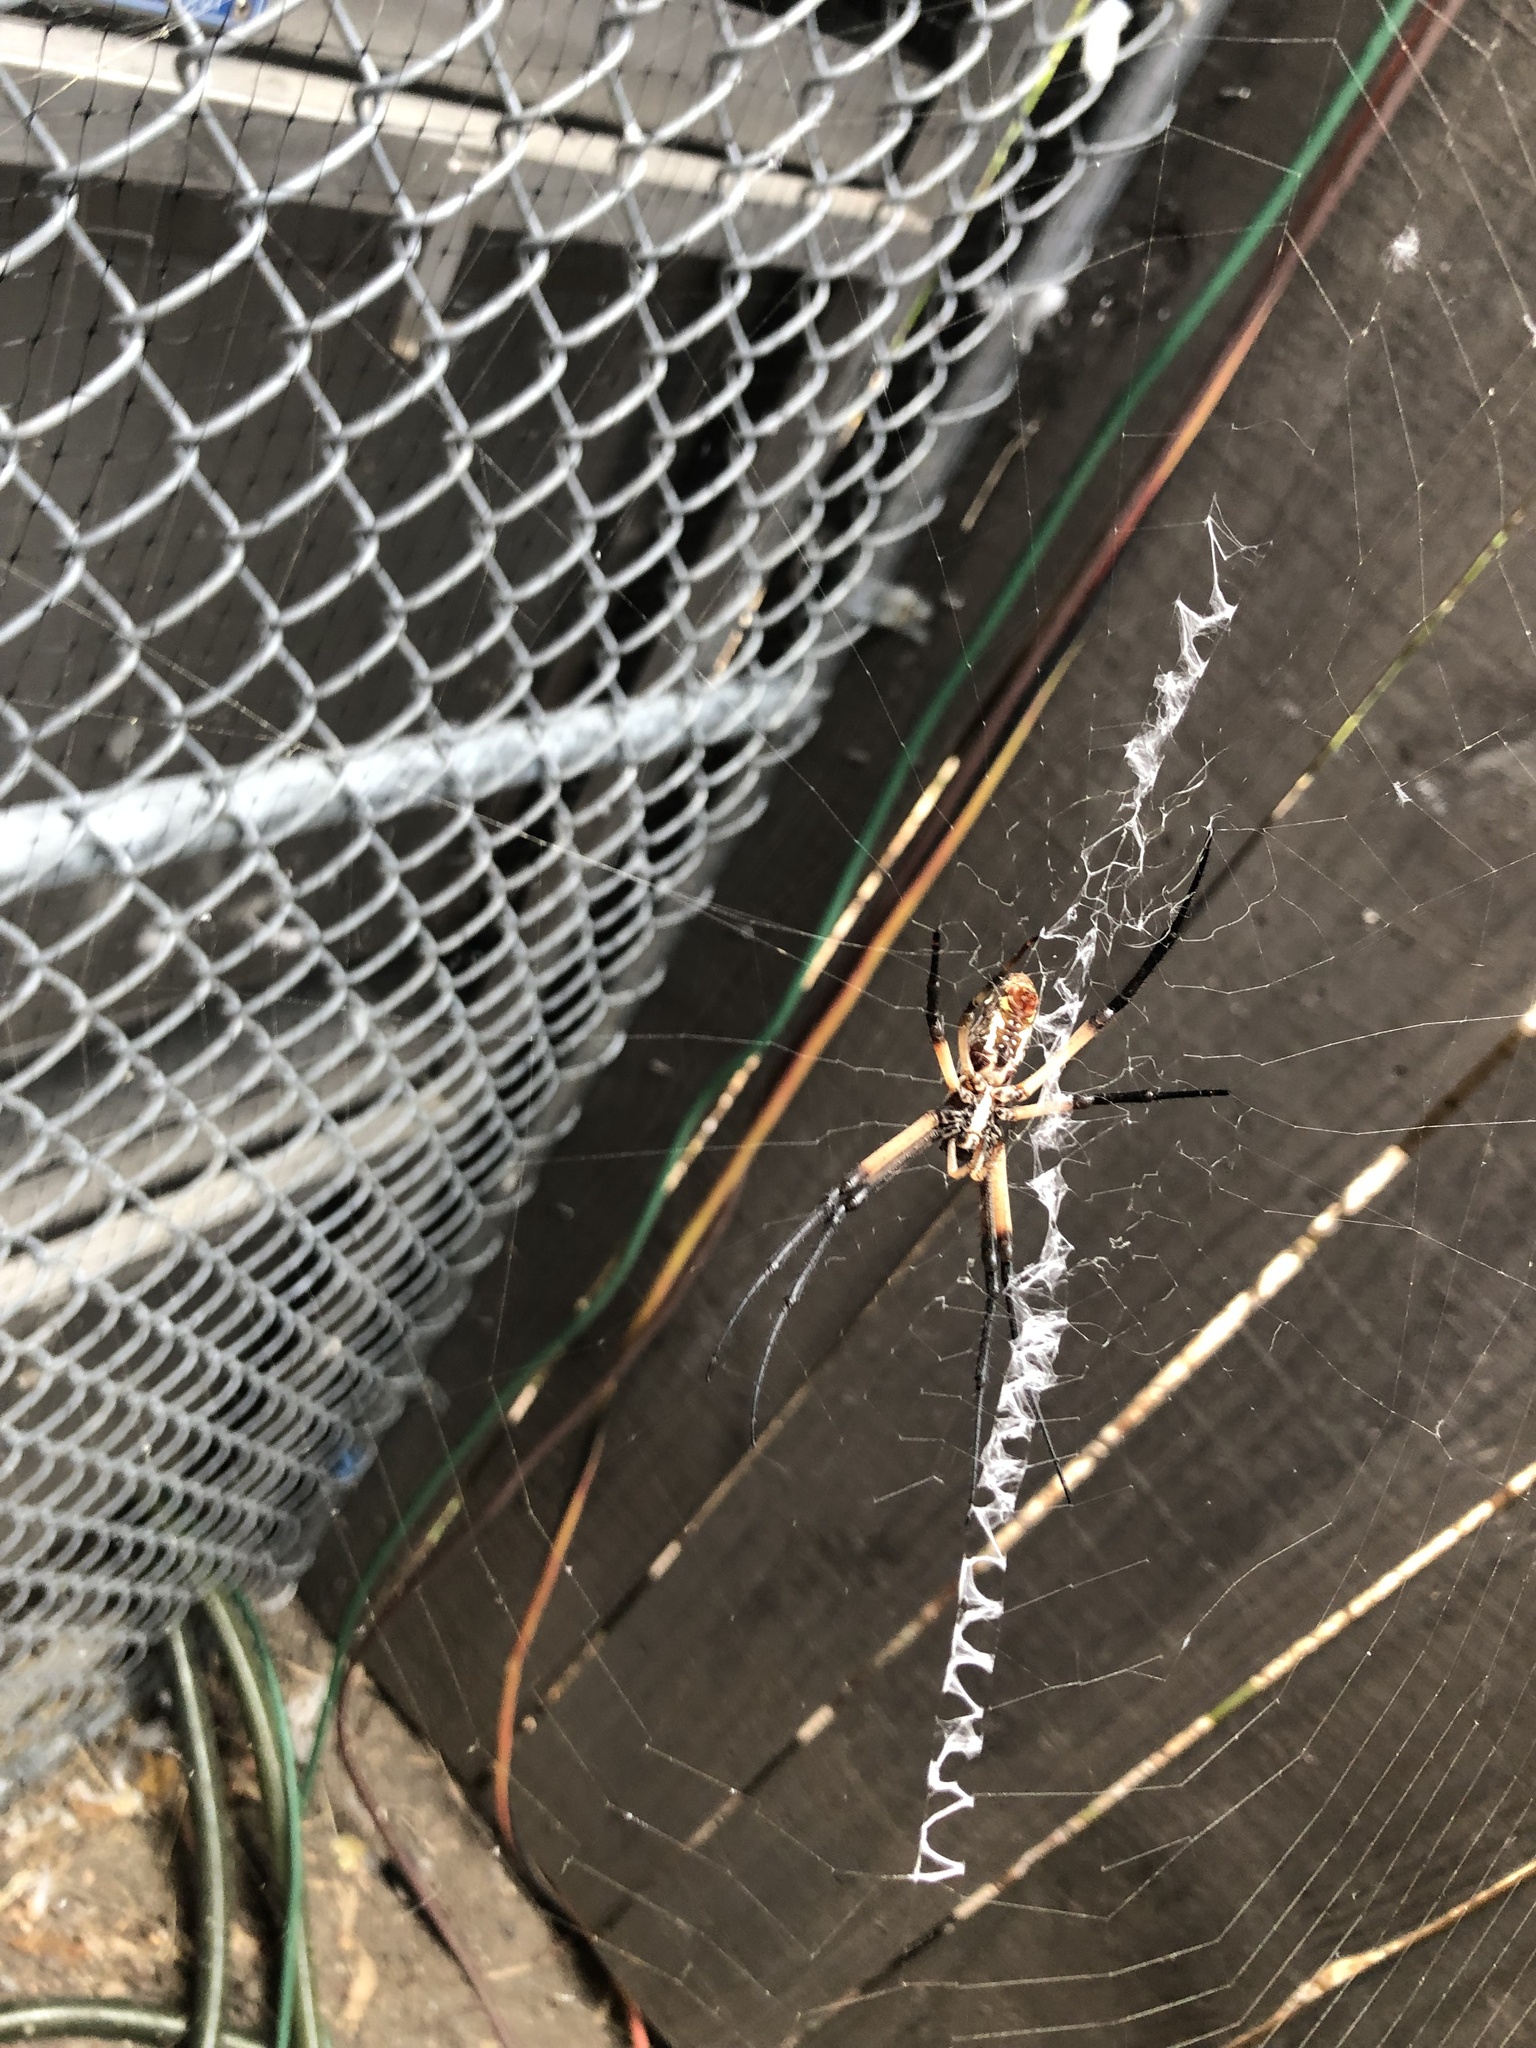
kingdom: Animalia
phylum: Arthropoda
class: Arachnida
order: Araneae
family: Araneidae
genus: Argiope
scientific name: Argiope aurantia
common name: Orb weavers
